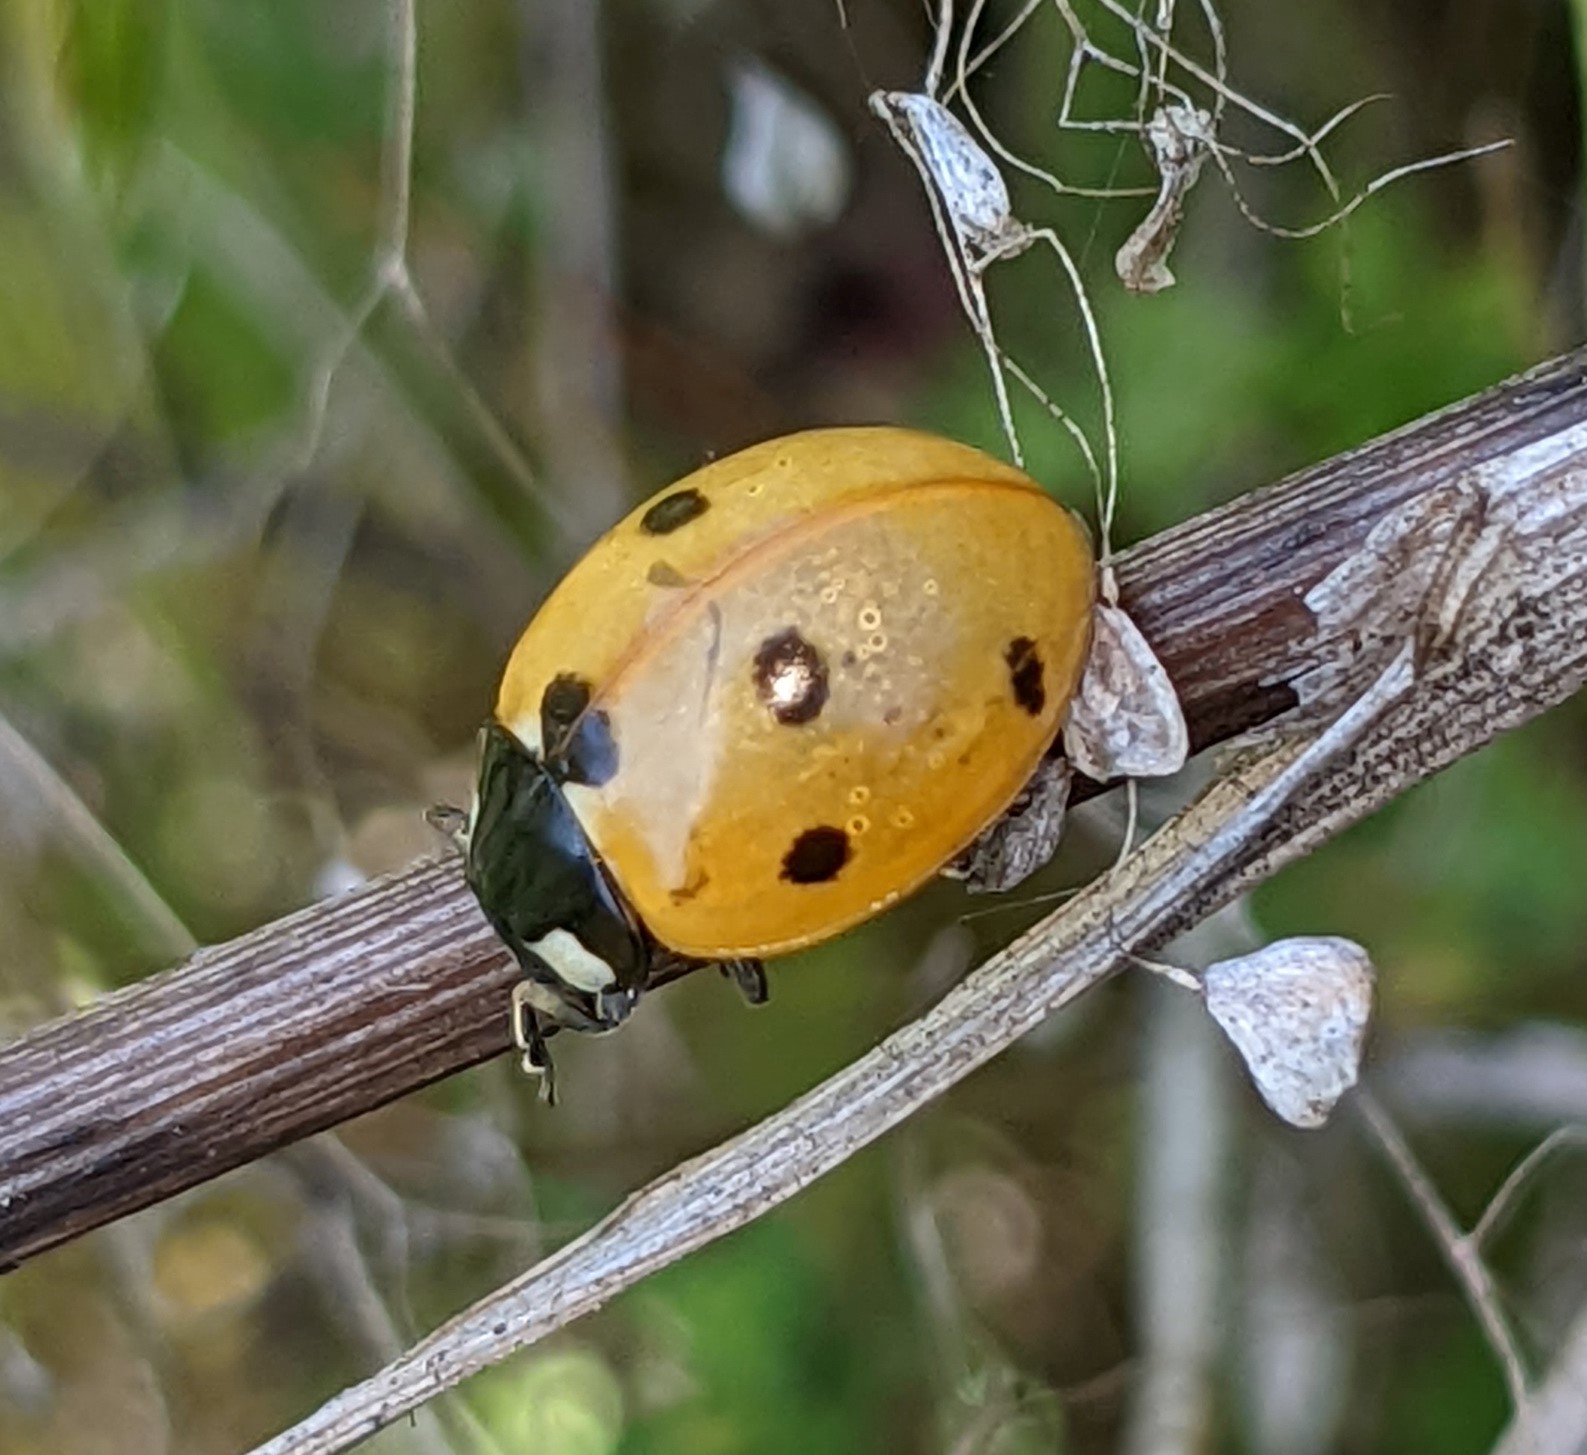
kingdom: Animalia
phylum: Arthropoda
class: Insecta
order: Coleoptera
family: Coccinellidae
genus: Coccinella
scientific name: Coccinella septempunctata
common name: Sevenspotted lady beetle
